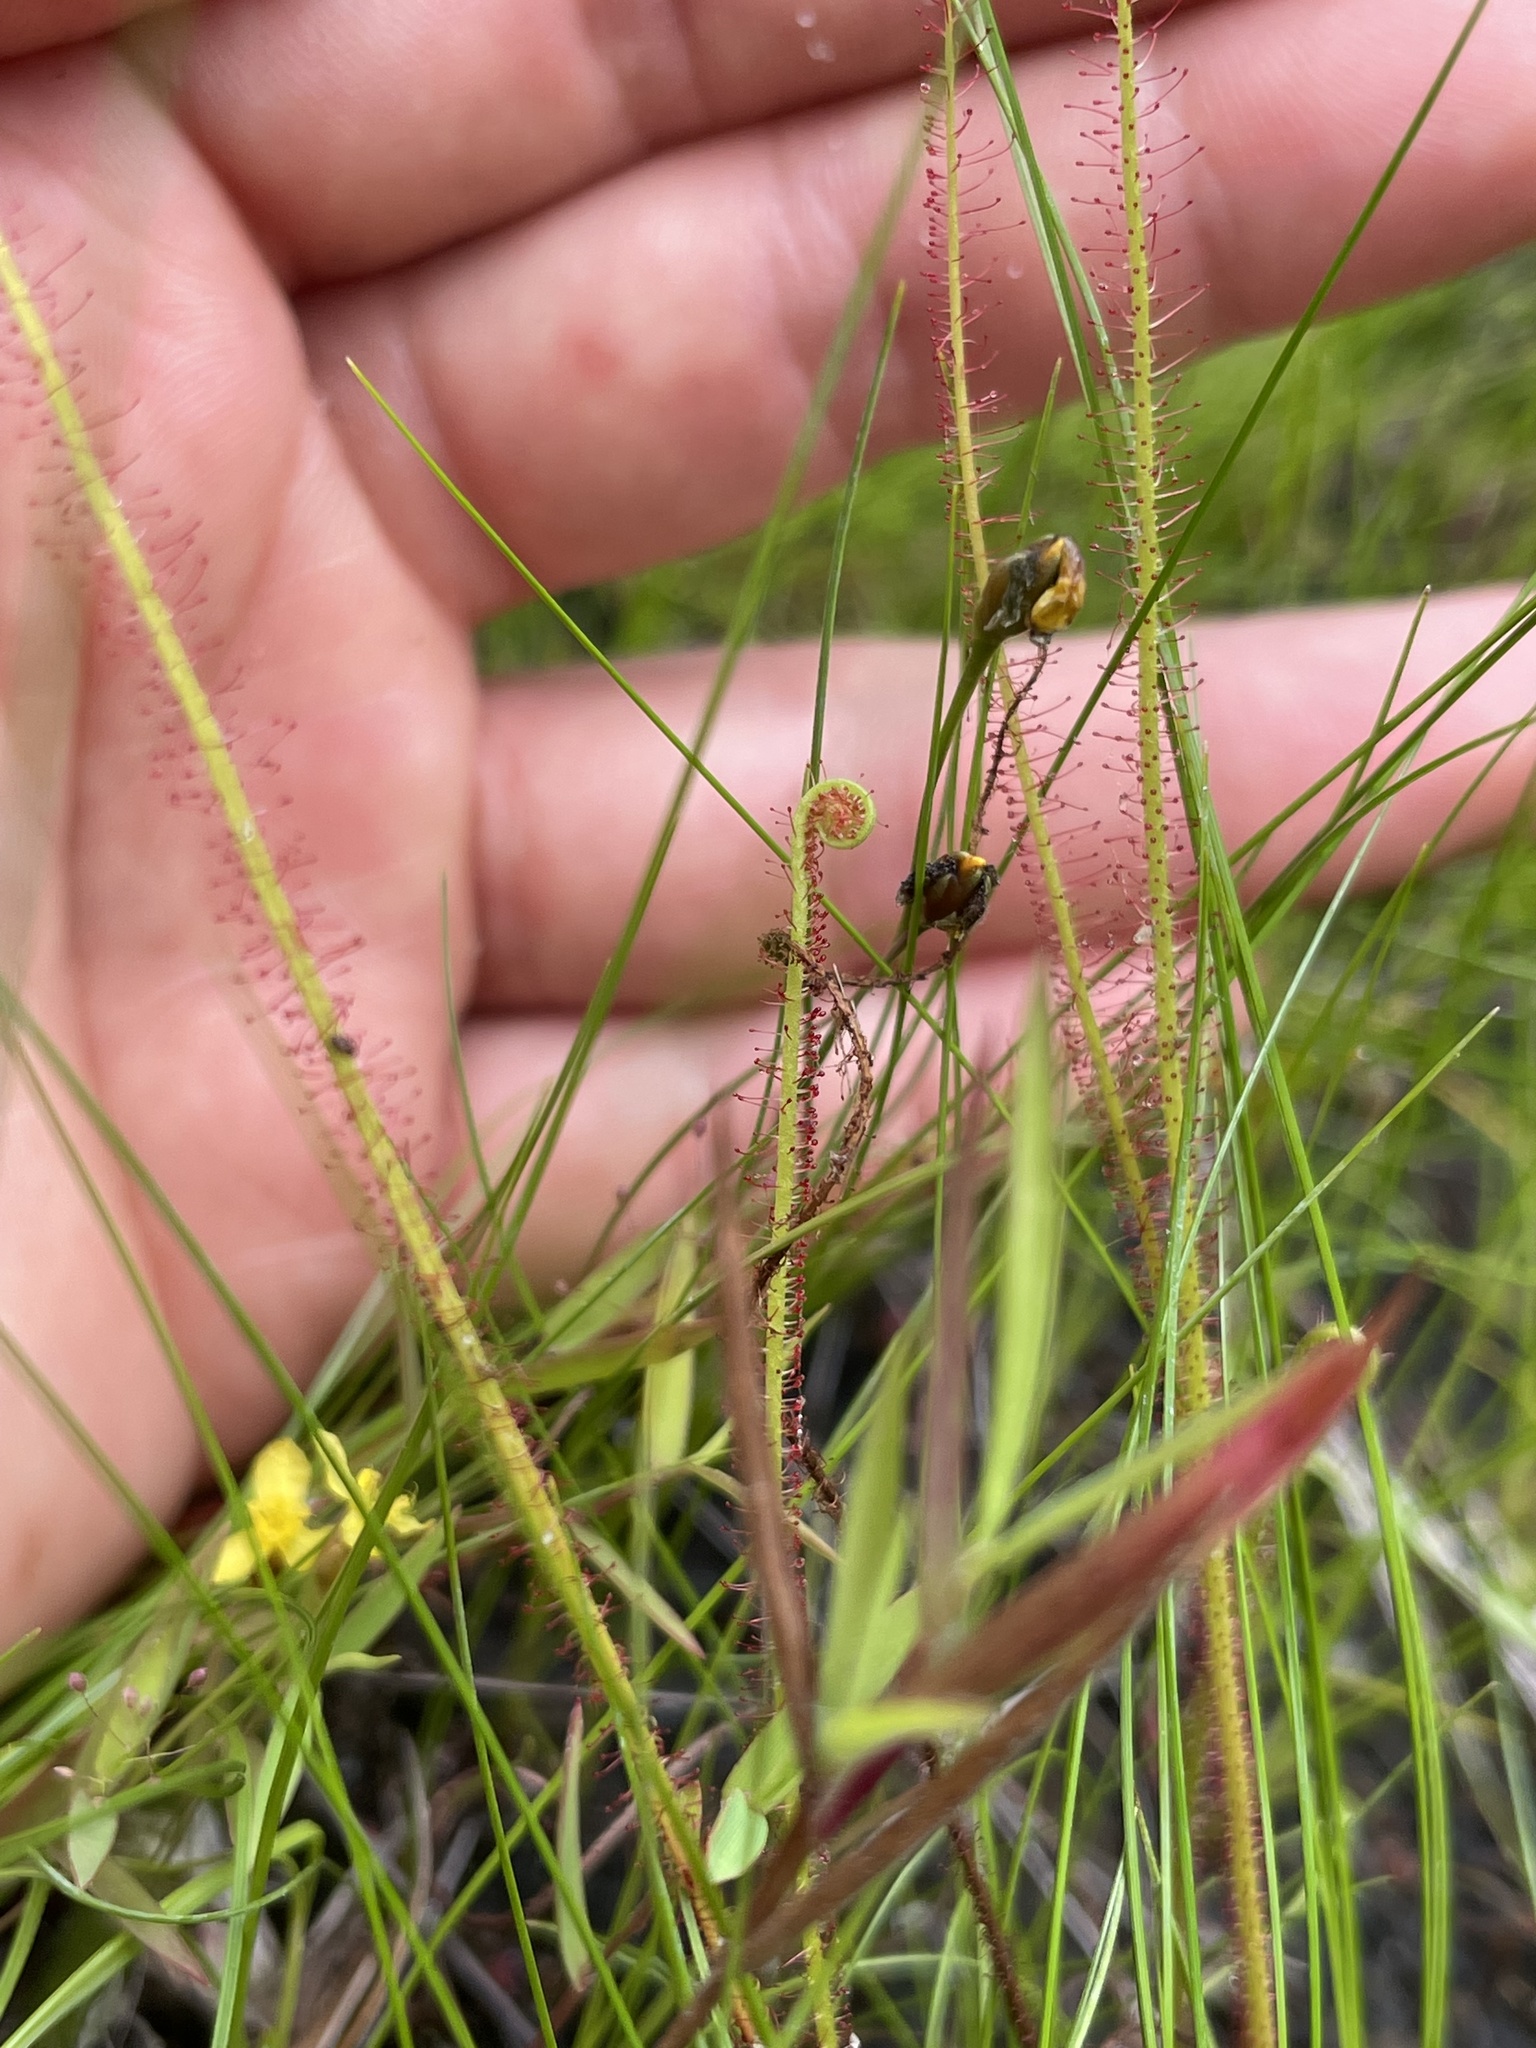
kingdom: Plantae
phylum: Tracheophyta
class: Magnoliopsida
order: Caryophyllales
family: Droseraceae
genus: Drosera
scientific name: Drosera filiformis
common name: Dew-thread
